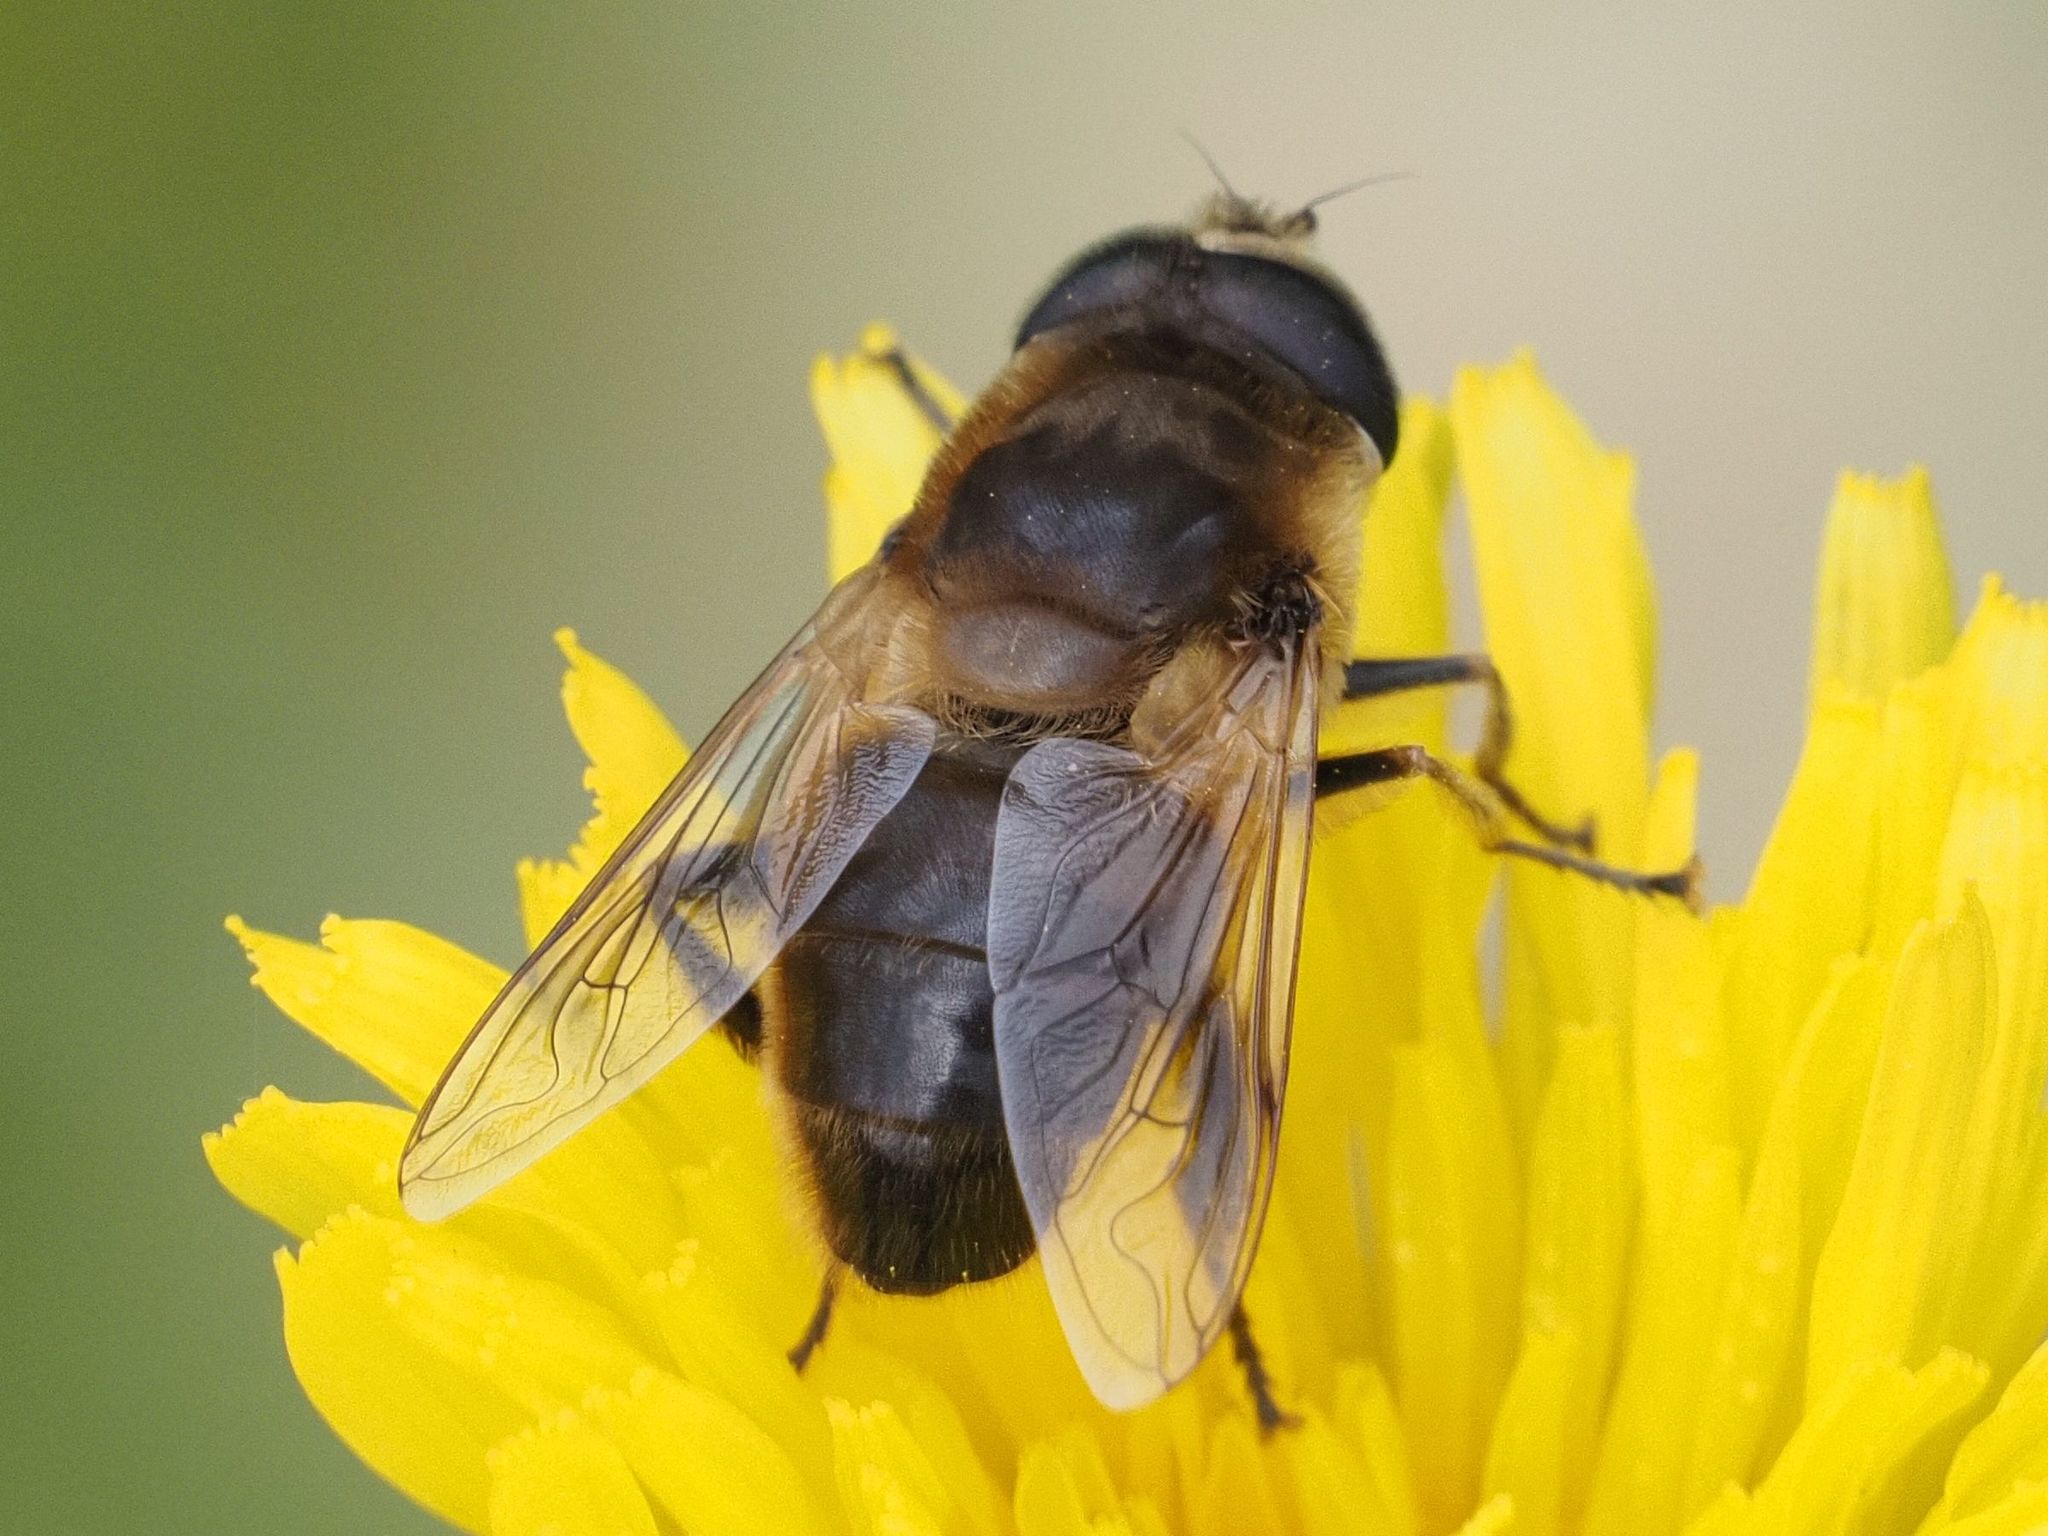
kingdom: Animalia
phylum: Arthropoda
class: Insecta
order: Diptera
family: Syrphidae
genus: Eristalis
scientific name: Eristalis tenax
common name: Drone fly
